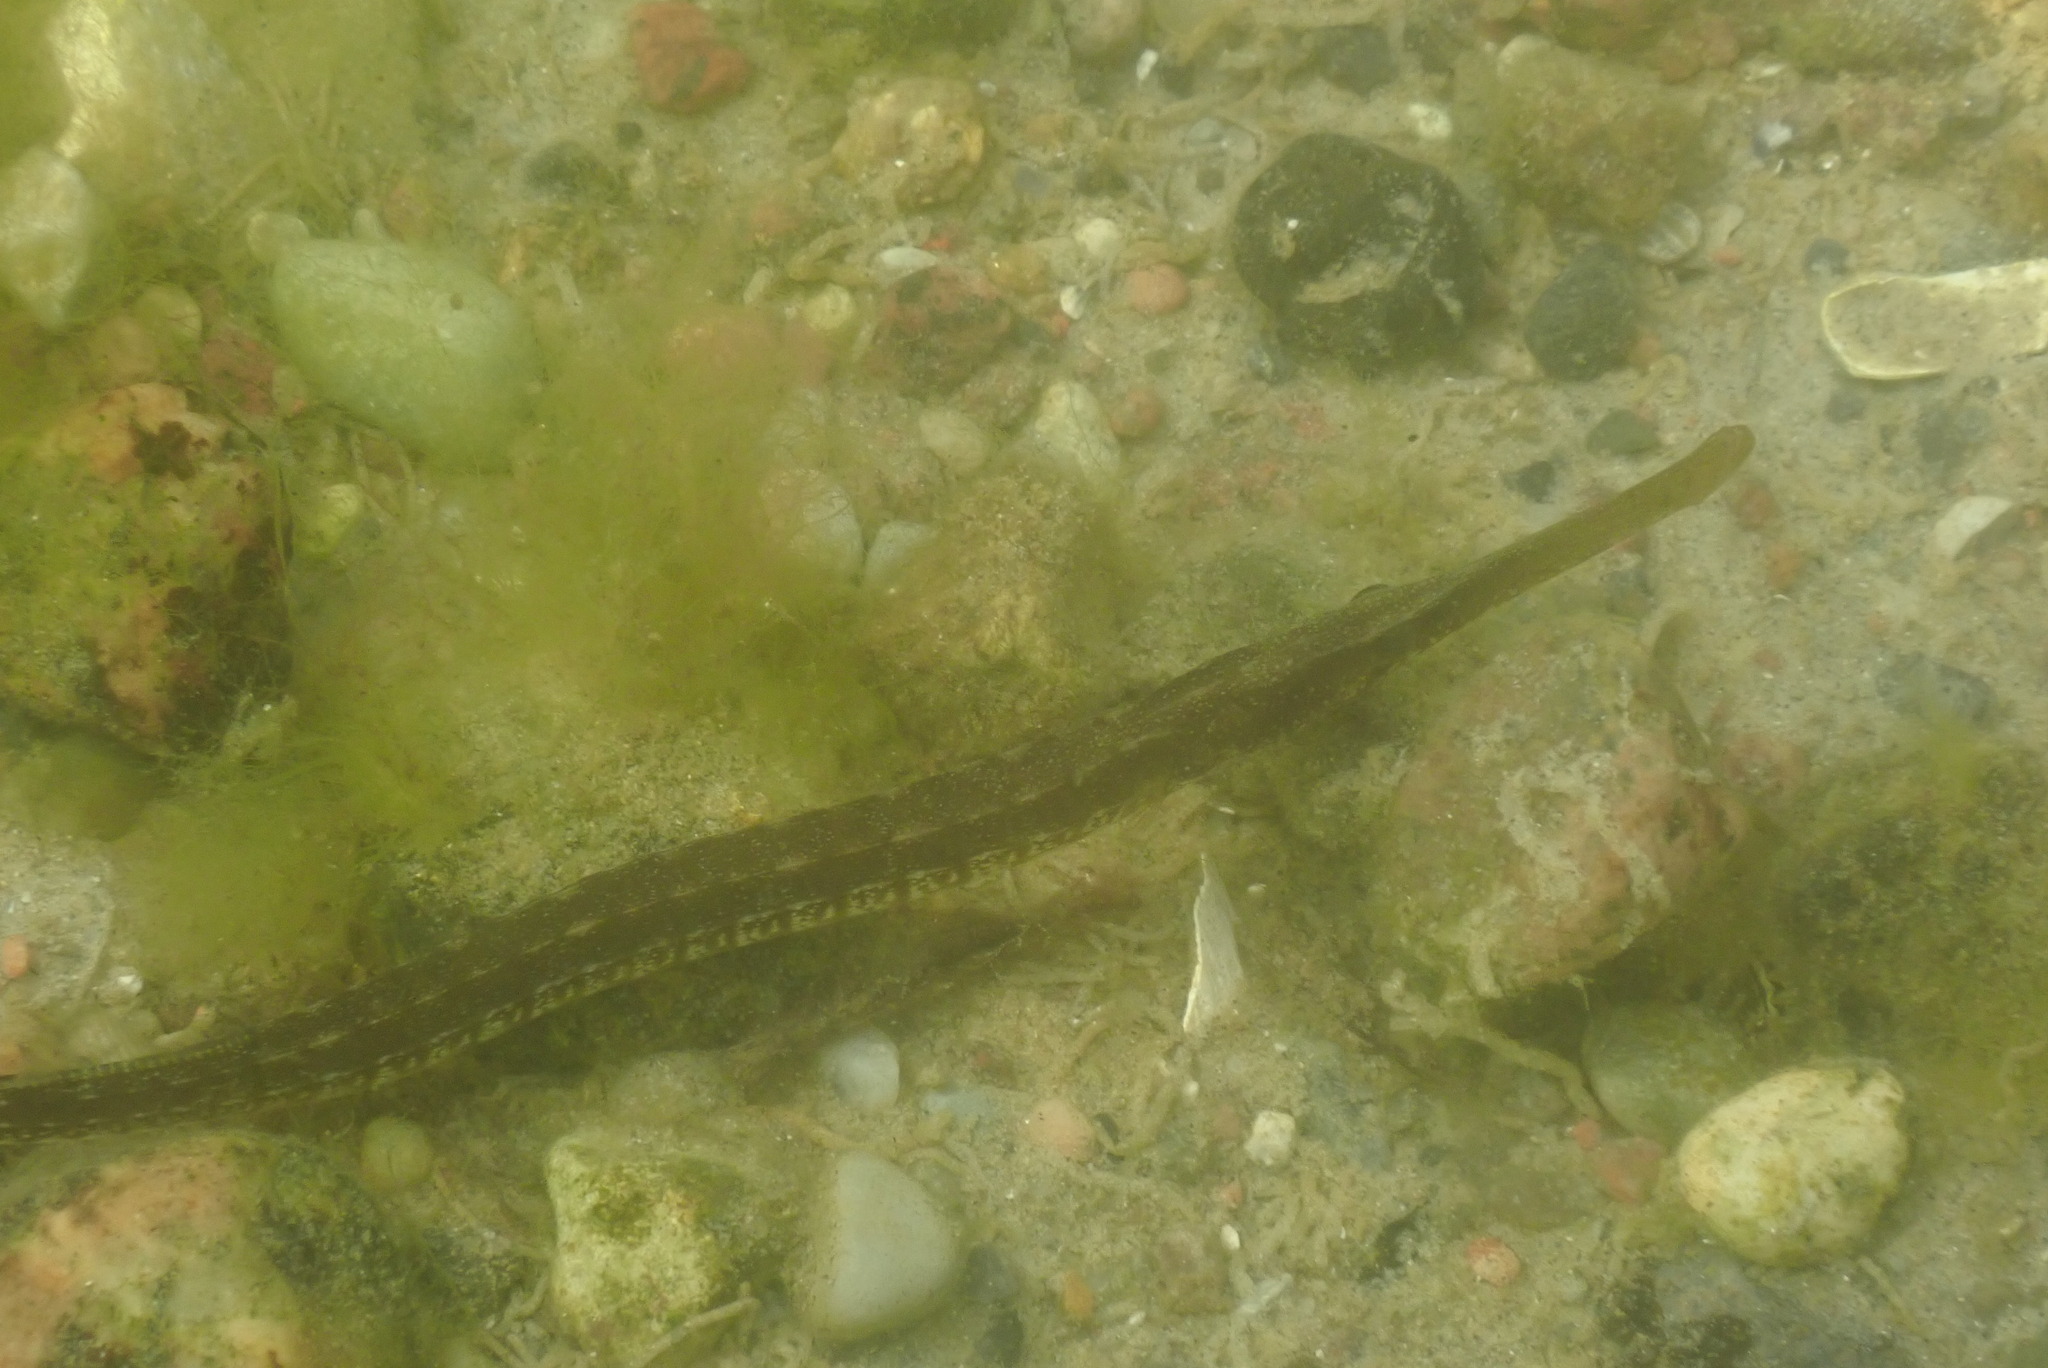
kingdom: Animalia
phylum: Chordata
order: Syngnathiformes
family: Syngnathidae
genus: Syngnathus
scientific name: Syngnathus typhle
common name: Deep-snouted pipefish
